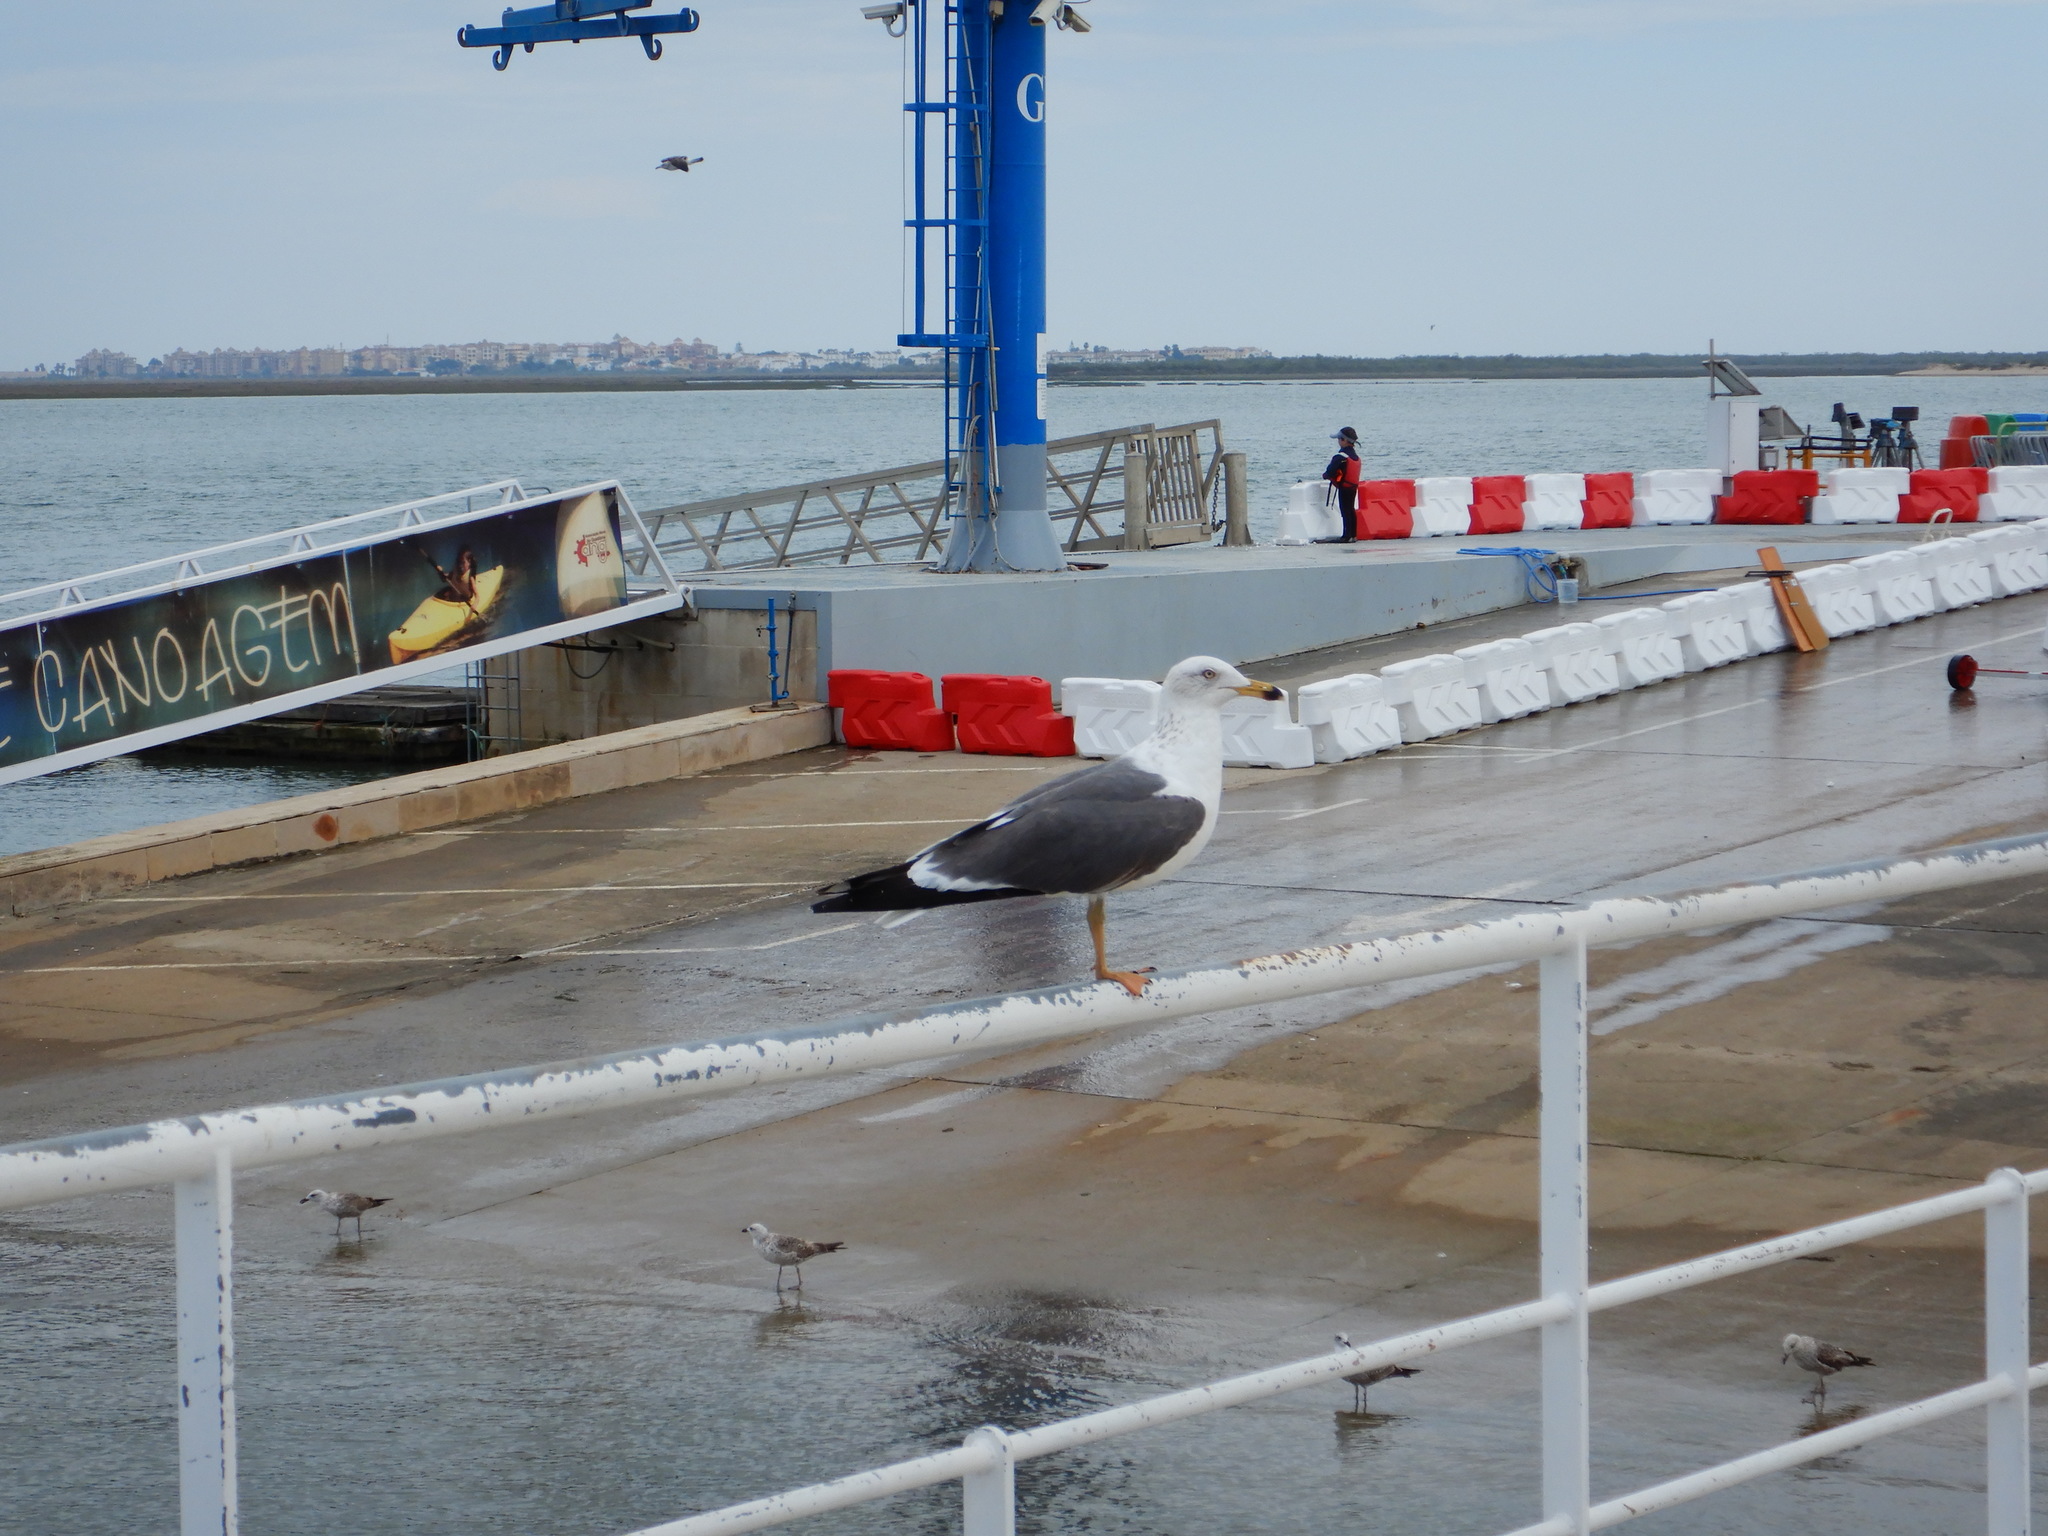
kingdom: Animalia
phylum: Chordata
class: Aves
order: Charadriiformes
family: Laridae
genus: Larus
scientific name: Larus fuscus
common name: Lesser black-backed gull
